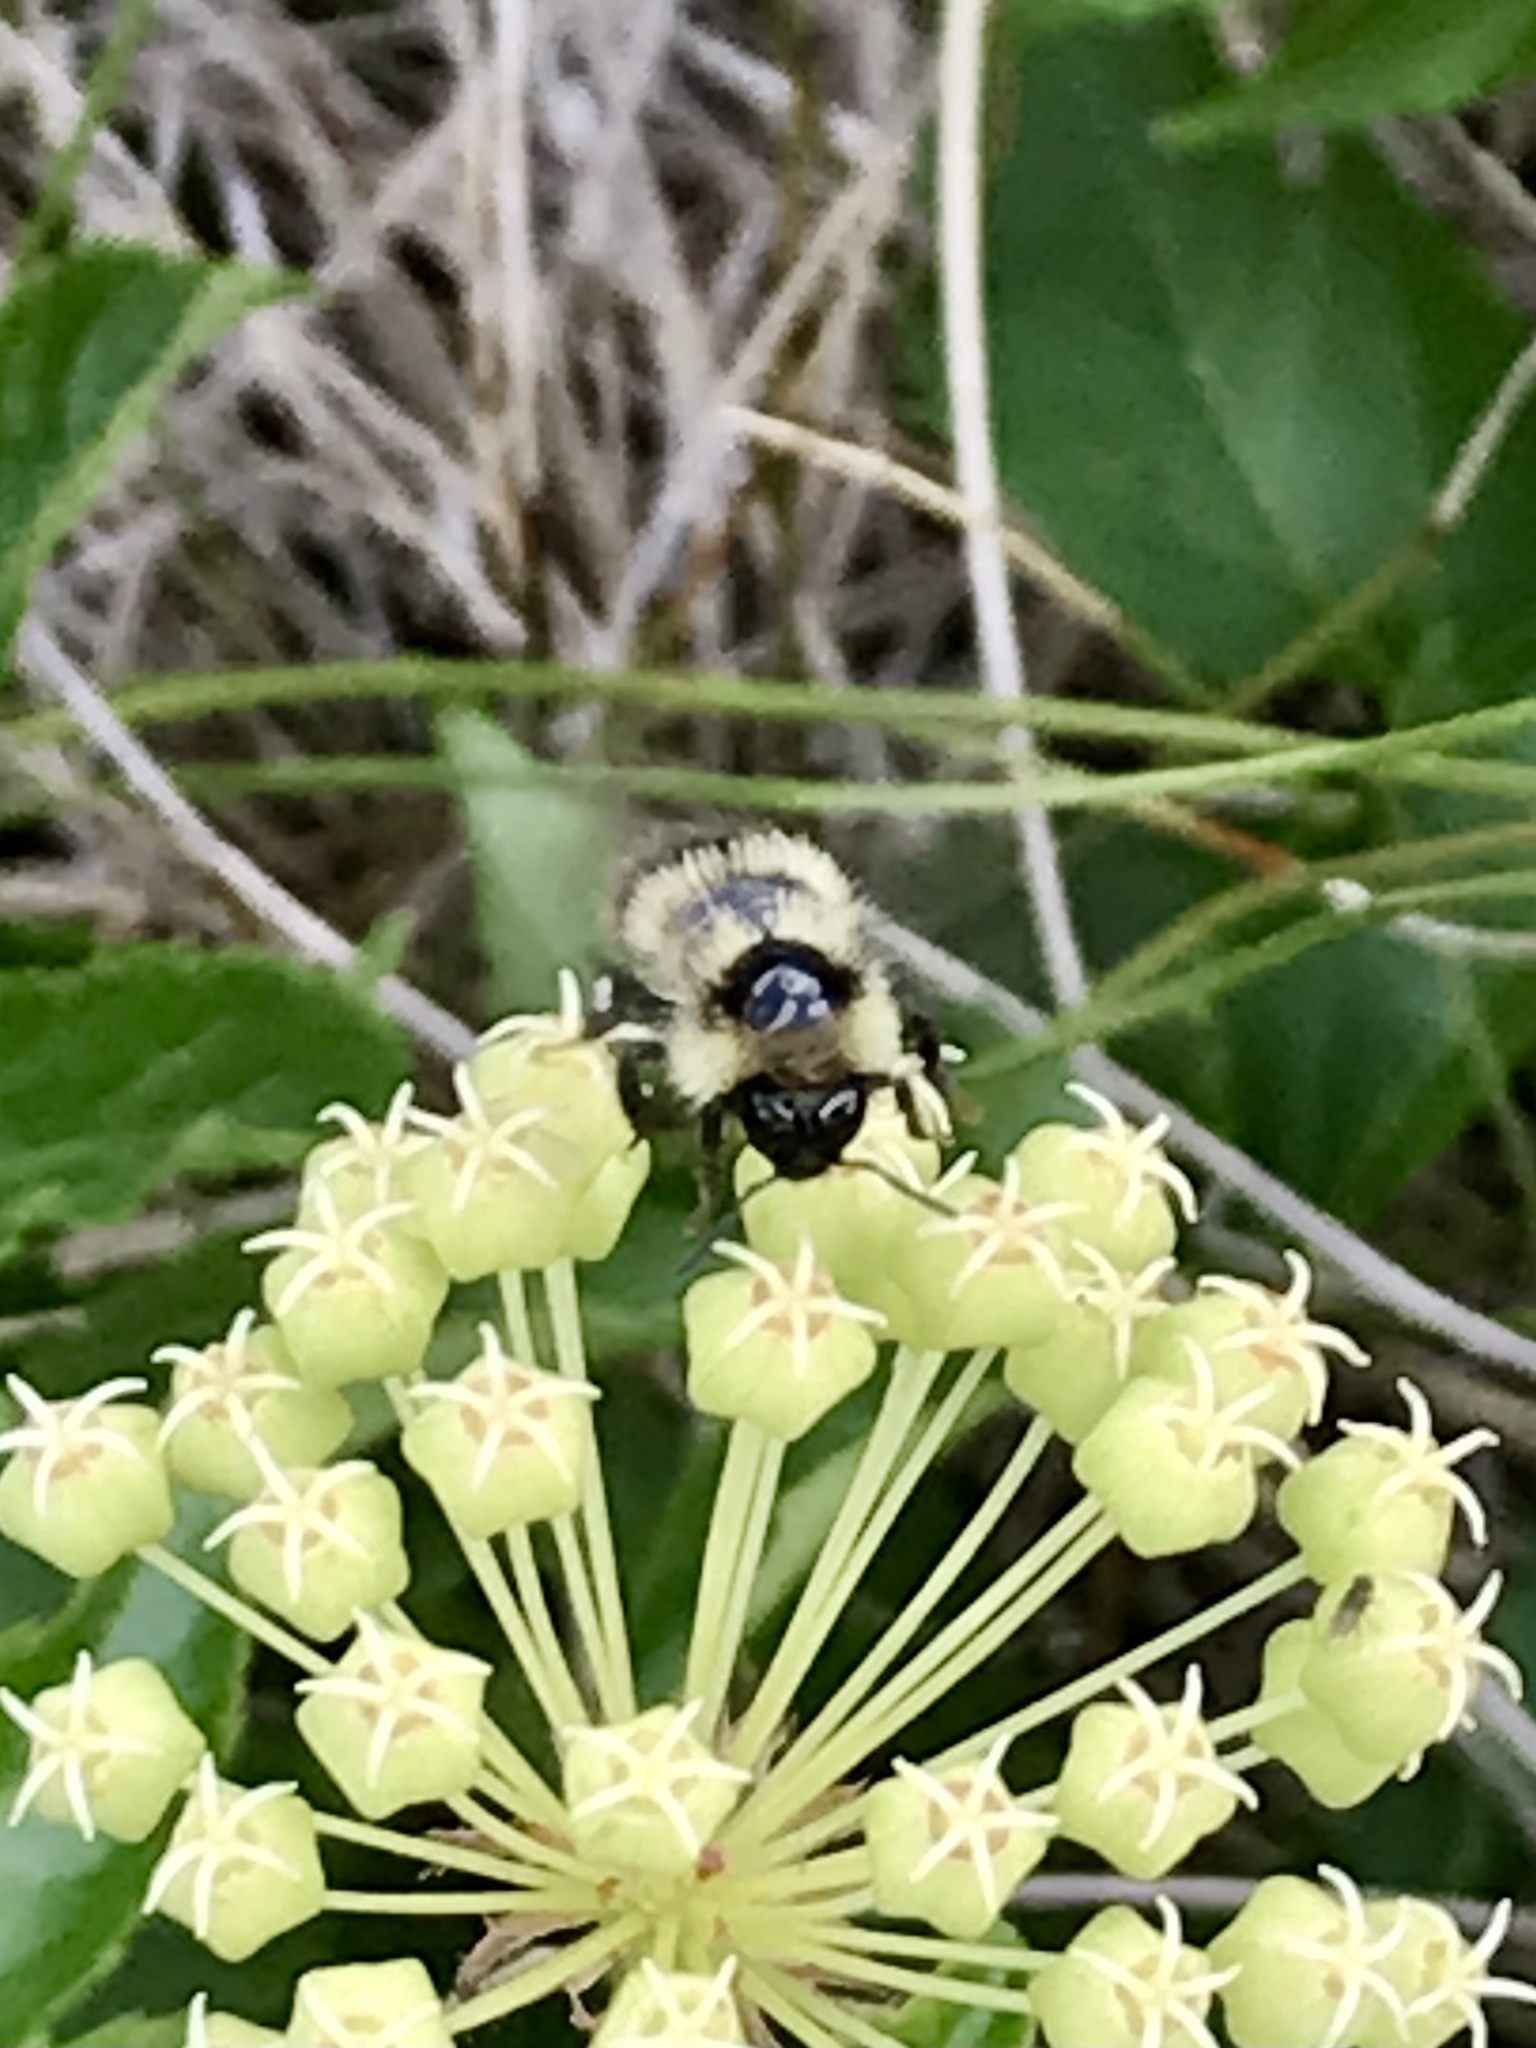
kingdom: Animalia
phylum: Arthropoda
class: Insecta
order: Hymenoptera
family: Apidae
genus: Pyrobombus
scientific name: Pyrobombus
